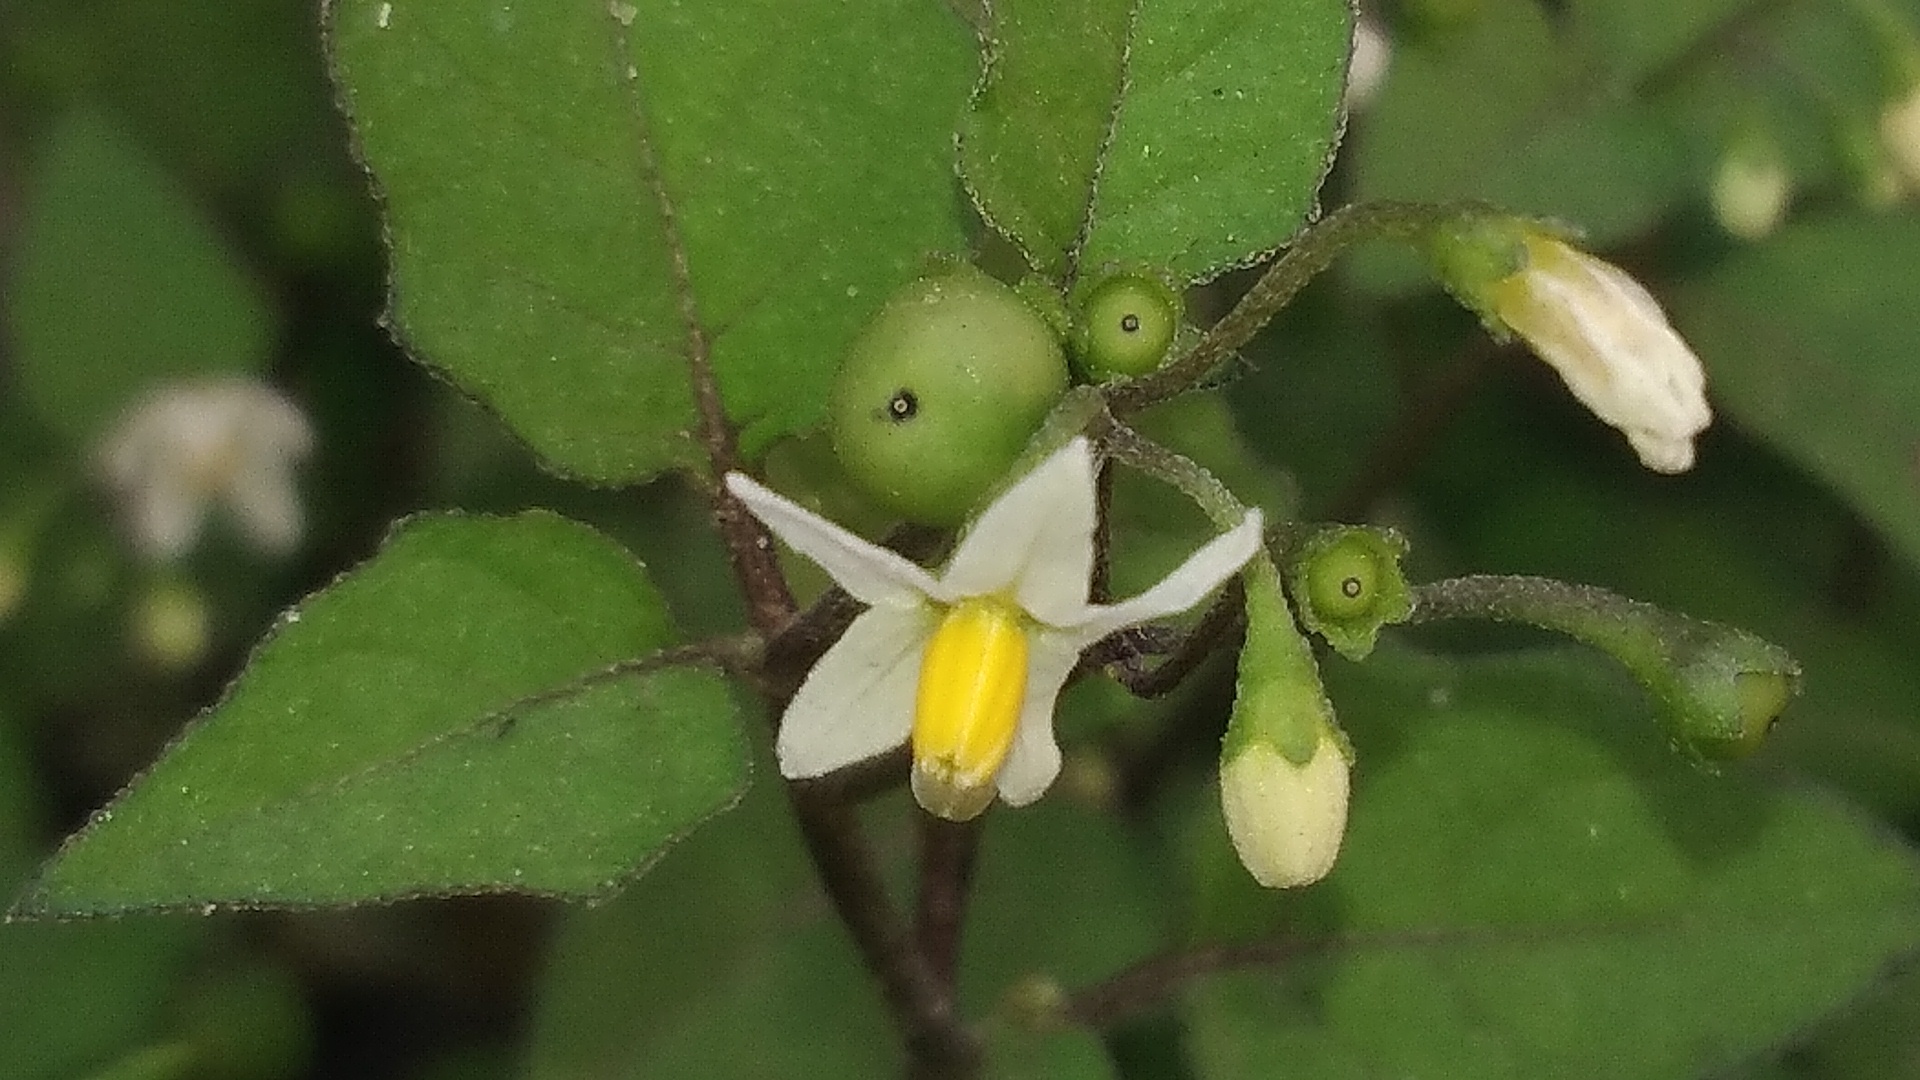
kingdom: Plantae
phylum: Tracheophyta
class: Magnoliopsida
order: Solanales
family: Solanaceae
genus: Solanum
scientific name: Solanum nigrum
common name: Black nightshade
